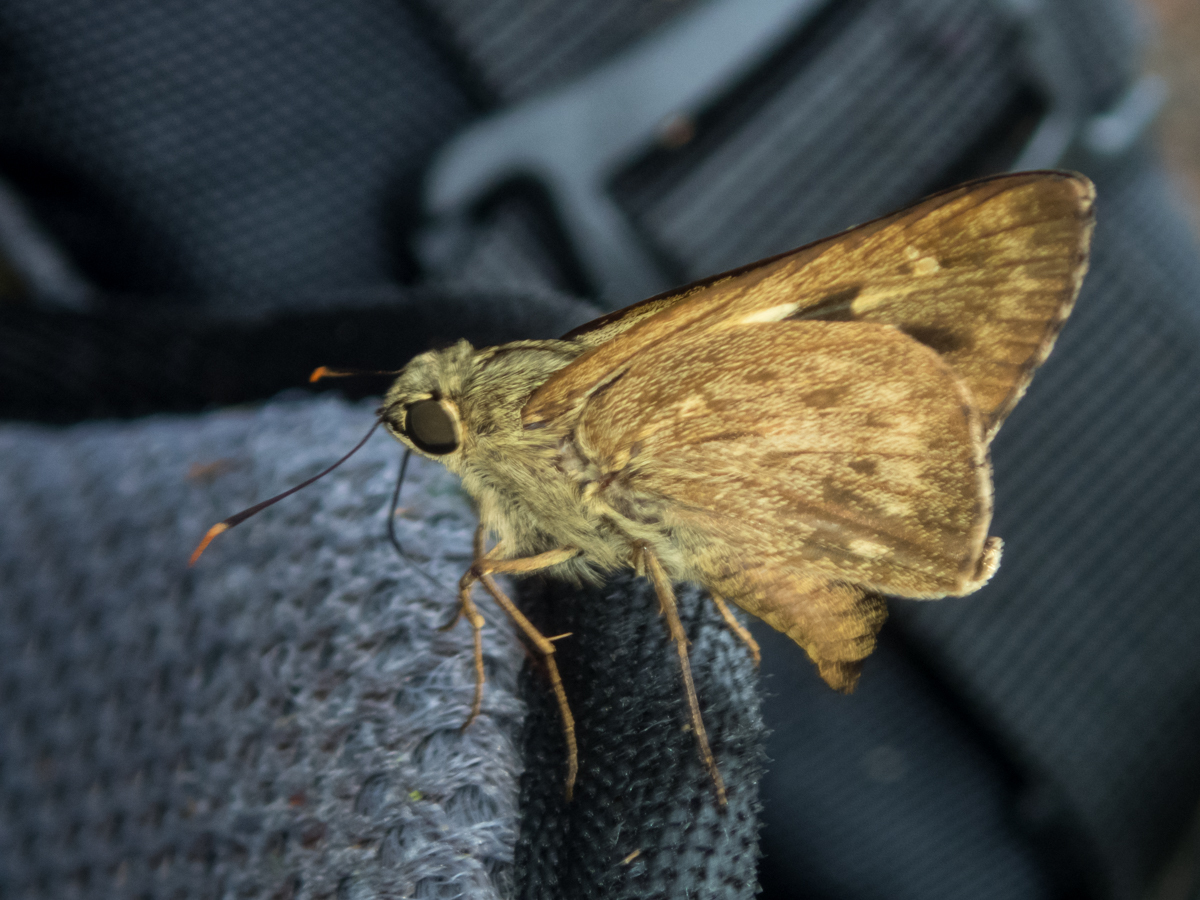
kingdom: Animalia
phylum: Arthropoda
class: Insecta
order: Lepidoptera
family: Hesperiidae
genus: Pithauria
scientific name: Pithauria stramineipennis
